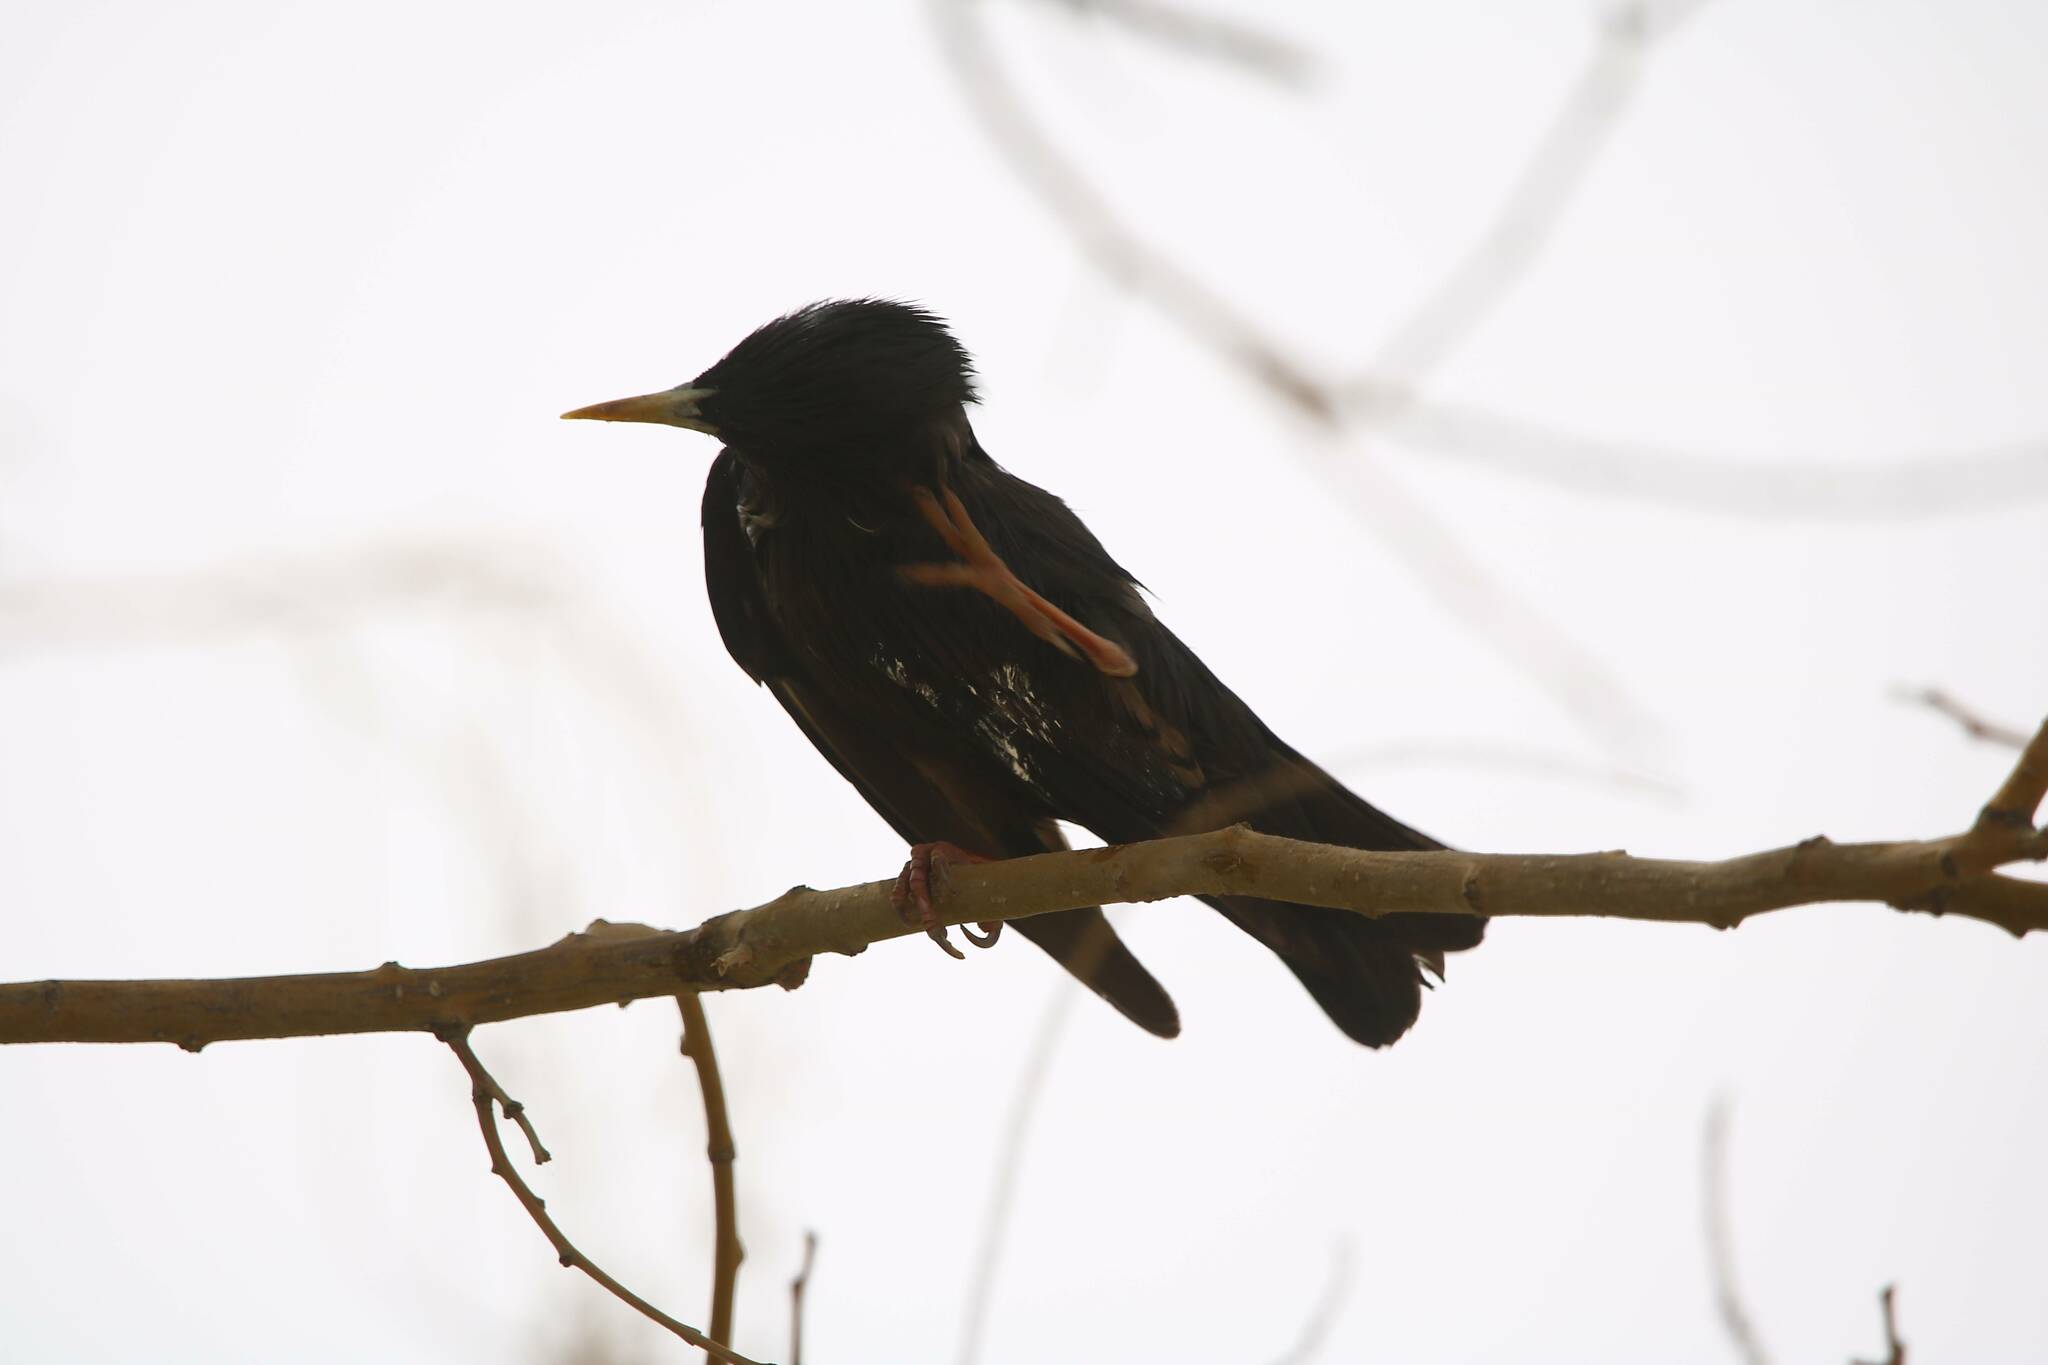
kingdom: Animalia
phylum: Chordata
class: Aves
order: Passeriformes
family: Sturnidae
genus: Sturnus
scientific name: Sturnus unicolor
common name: Spotless starling
